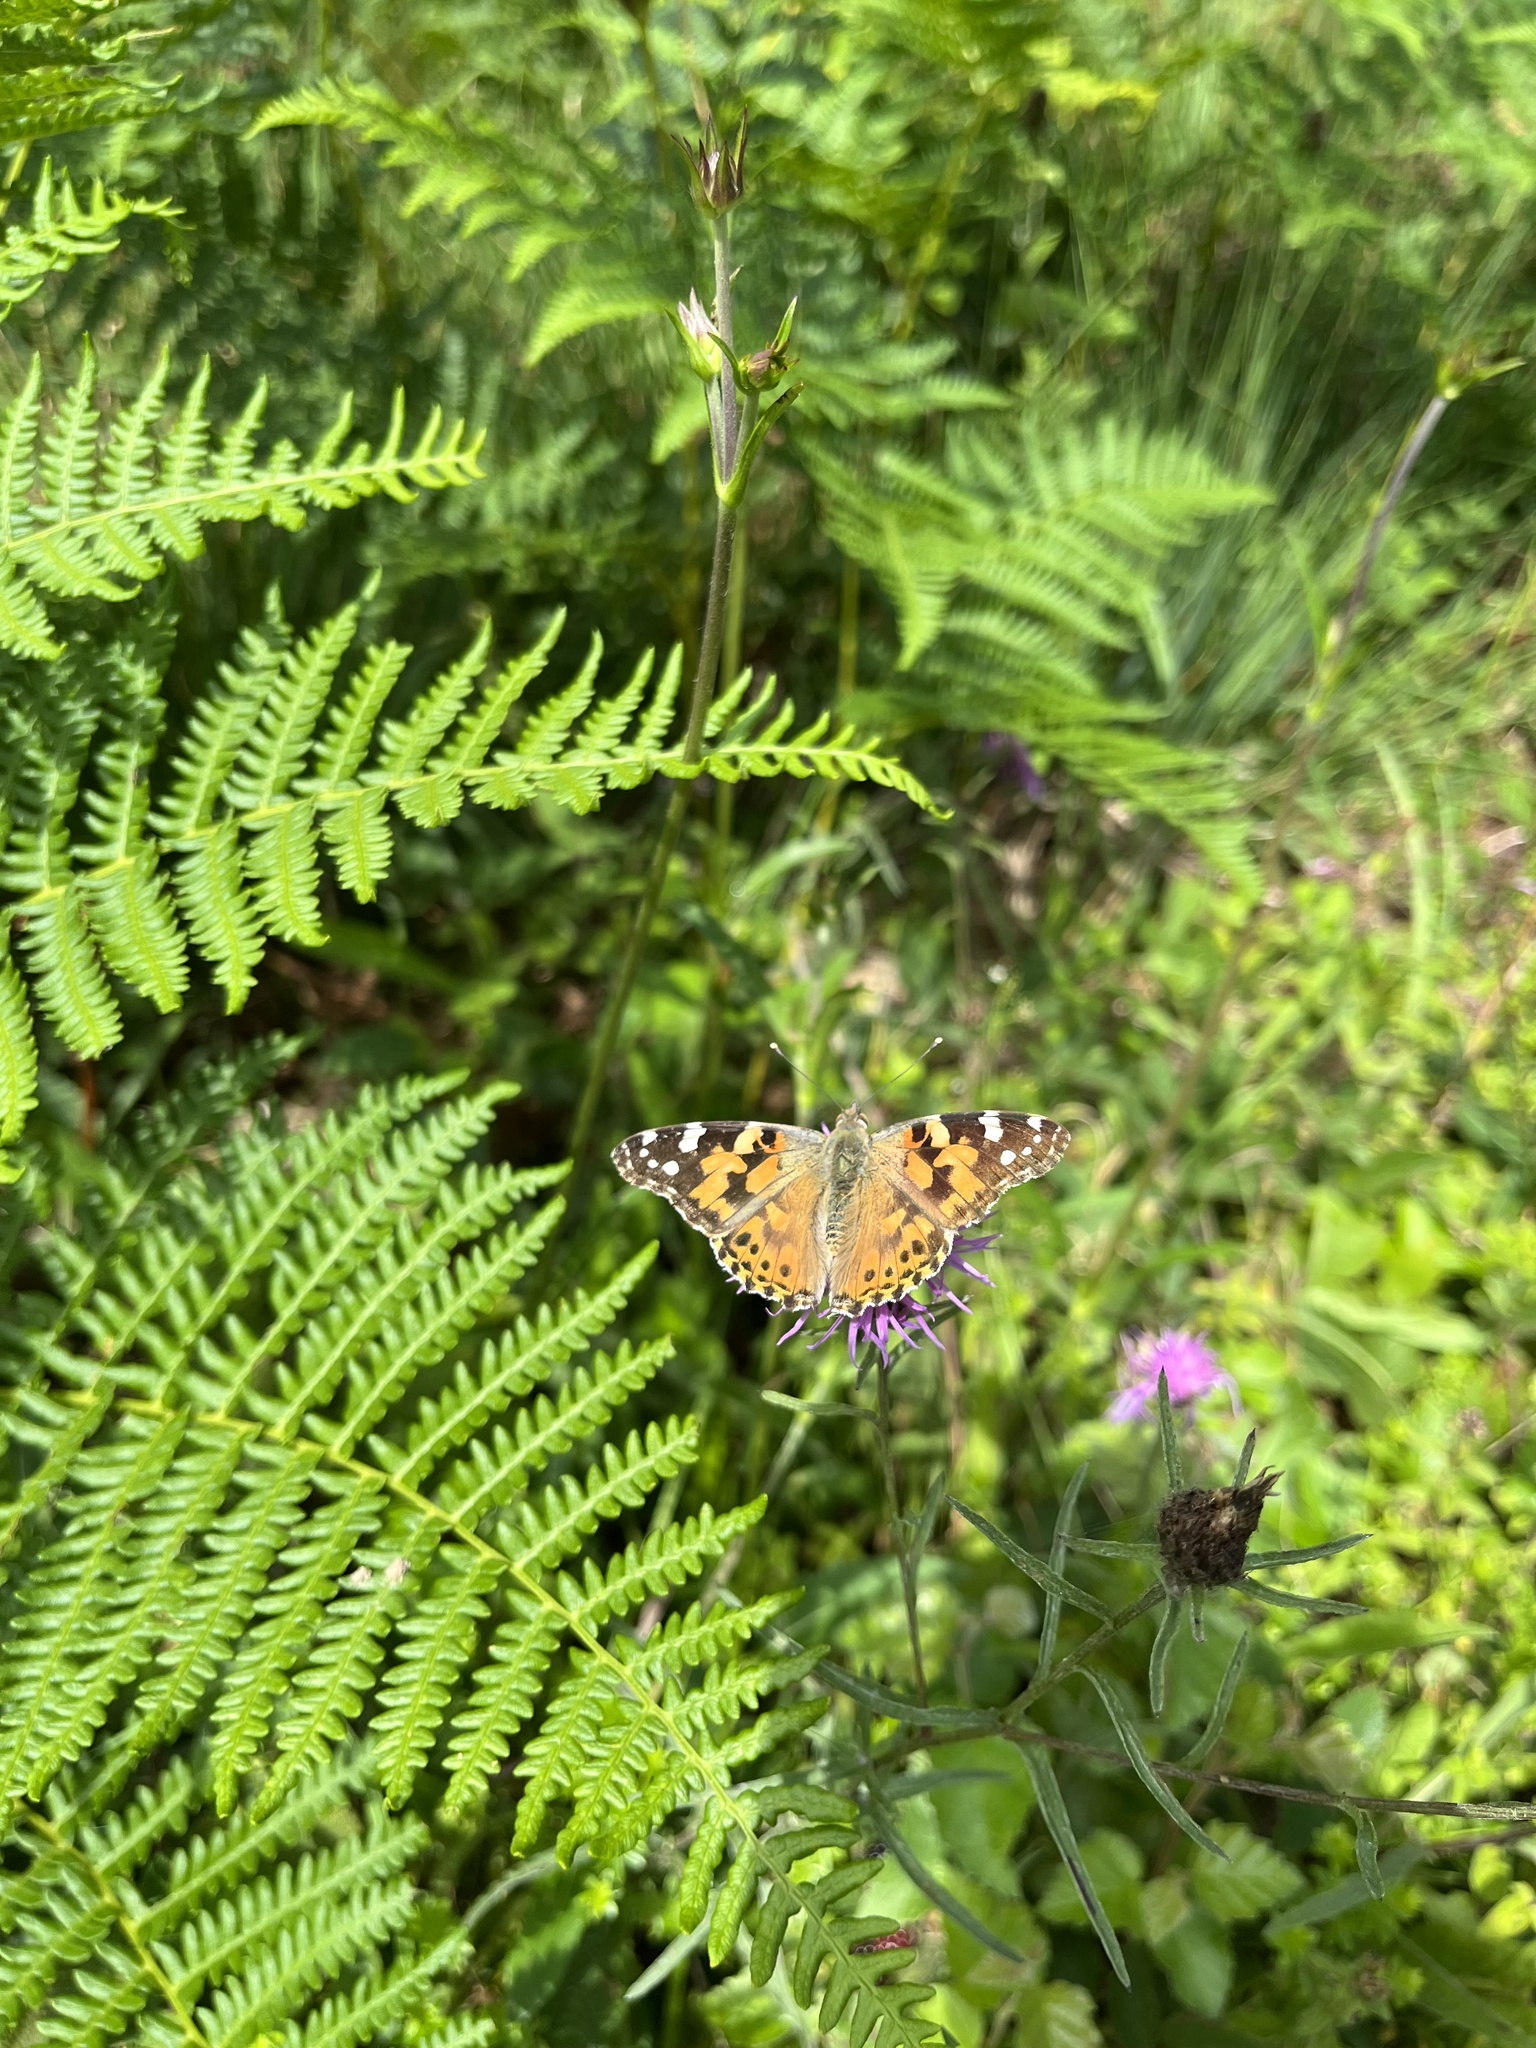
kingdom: Animalia
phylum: Arthropoda
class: Insecta
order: Lepidoptera
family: Nymphalidae
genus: Vanessa
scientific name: Vanessa cardui
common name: Painted lady
